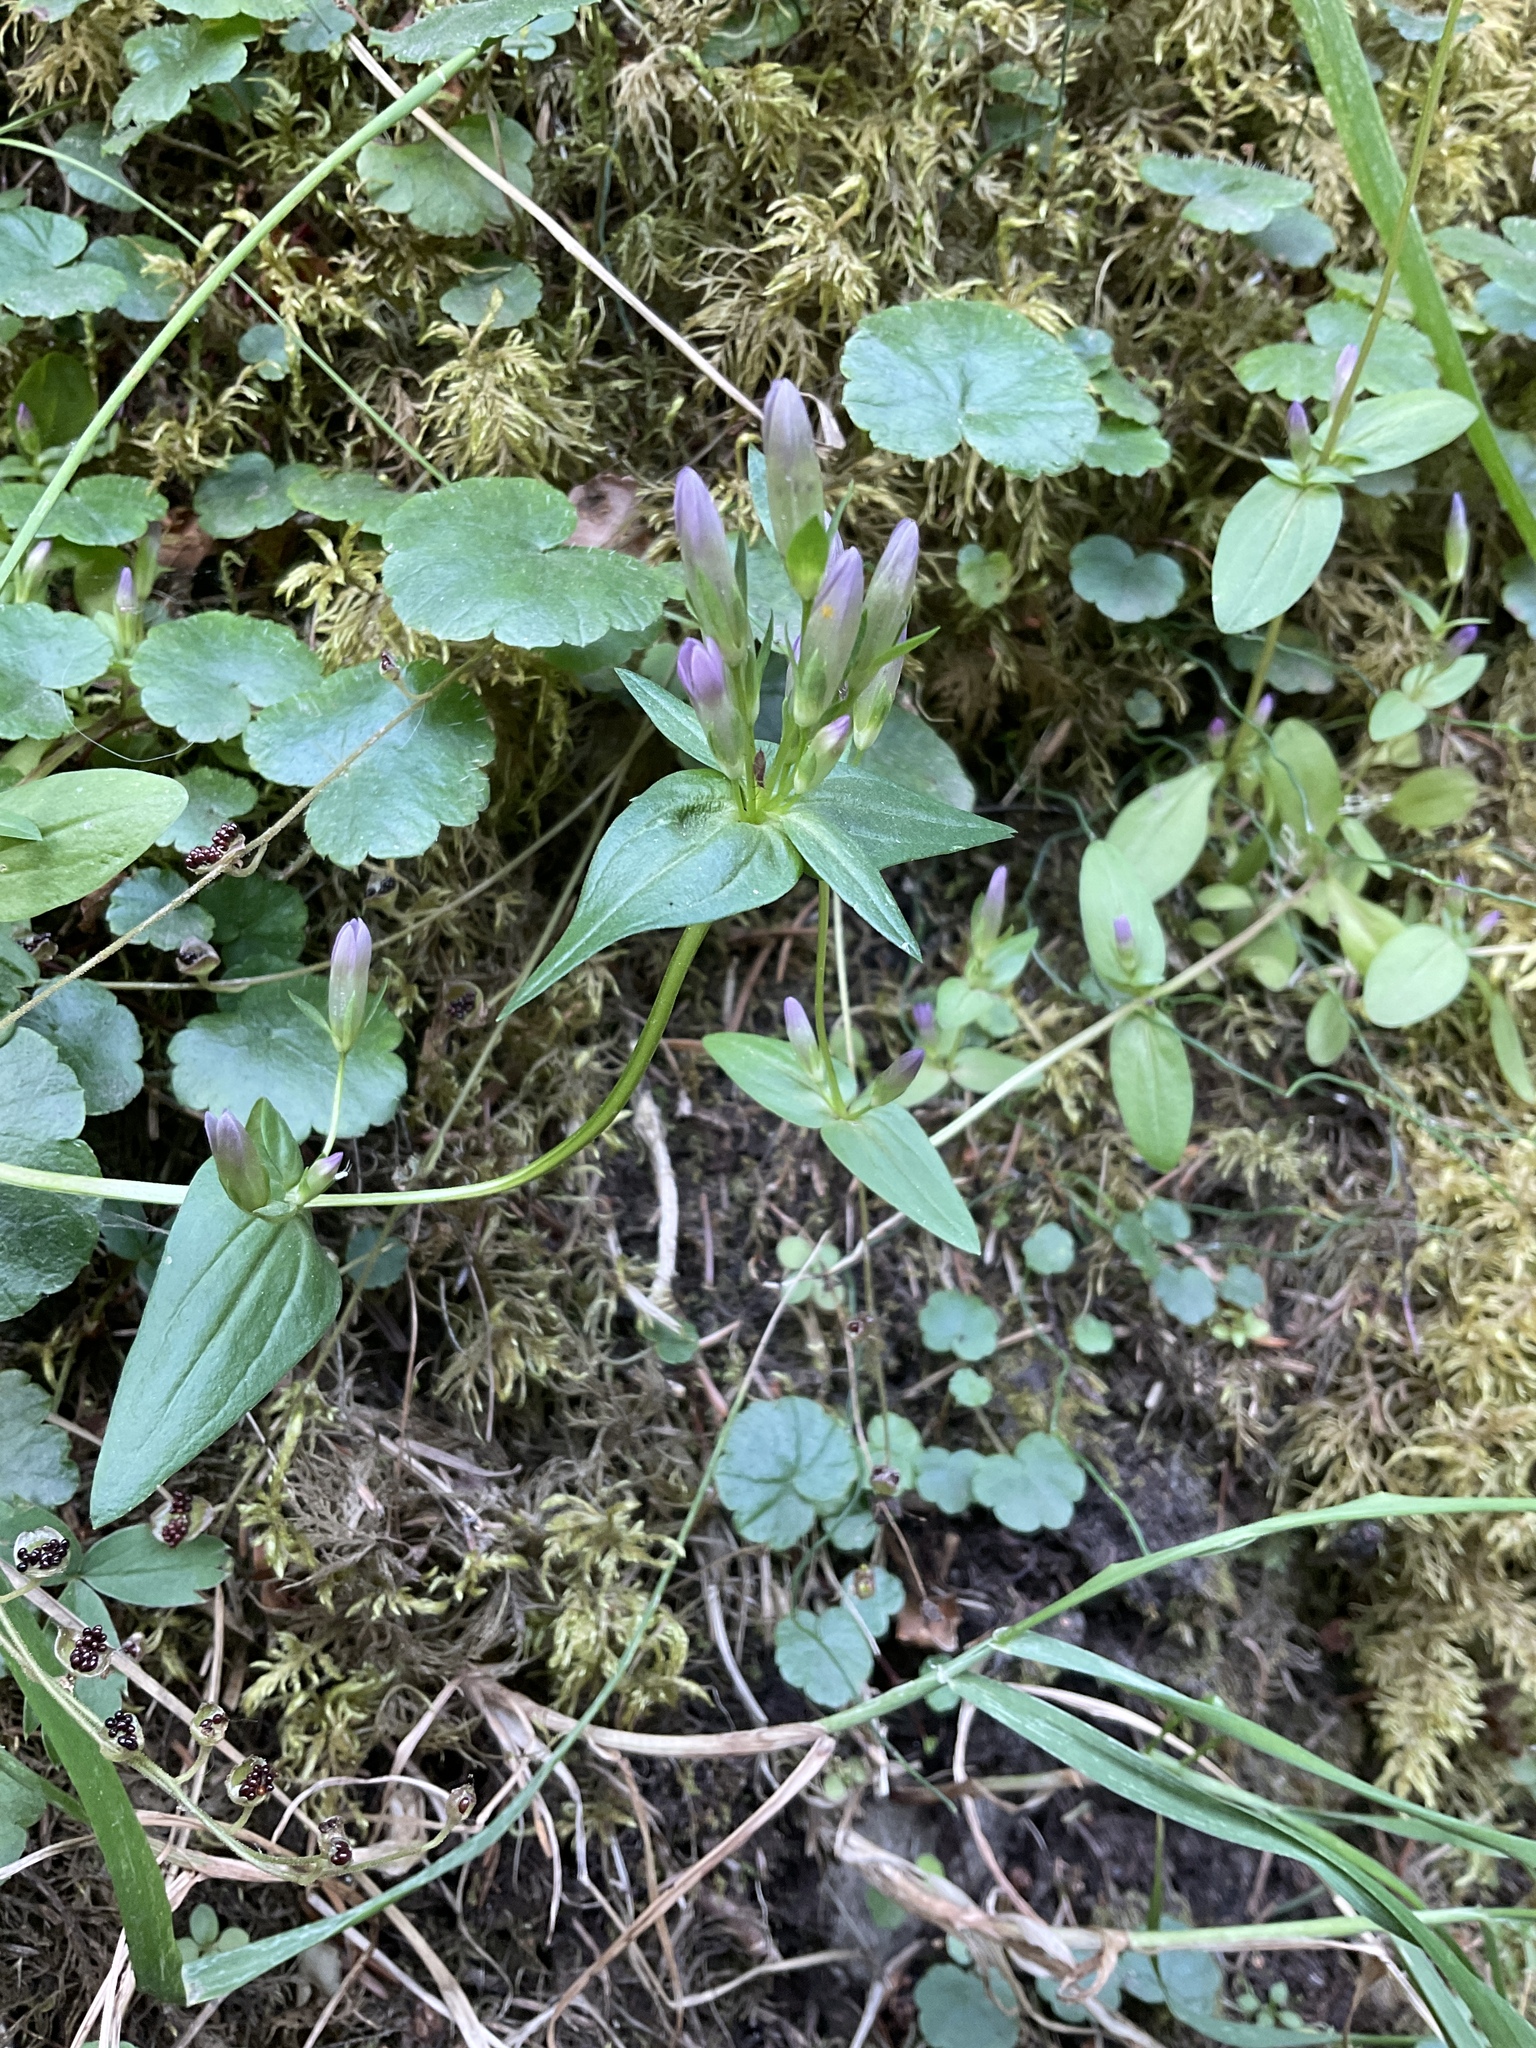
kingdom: Plantae
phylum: Tracheophyta
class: Magnoliopsida
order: Gentianales
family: Gentianaceae
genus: Gentianella
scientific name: Gentianella propinqua
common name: Four-parted dwarf-gentian
